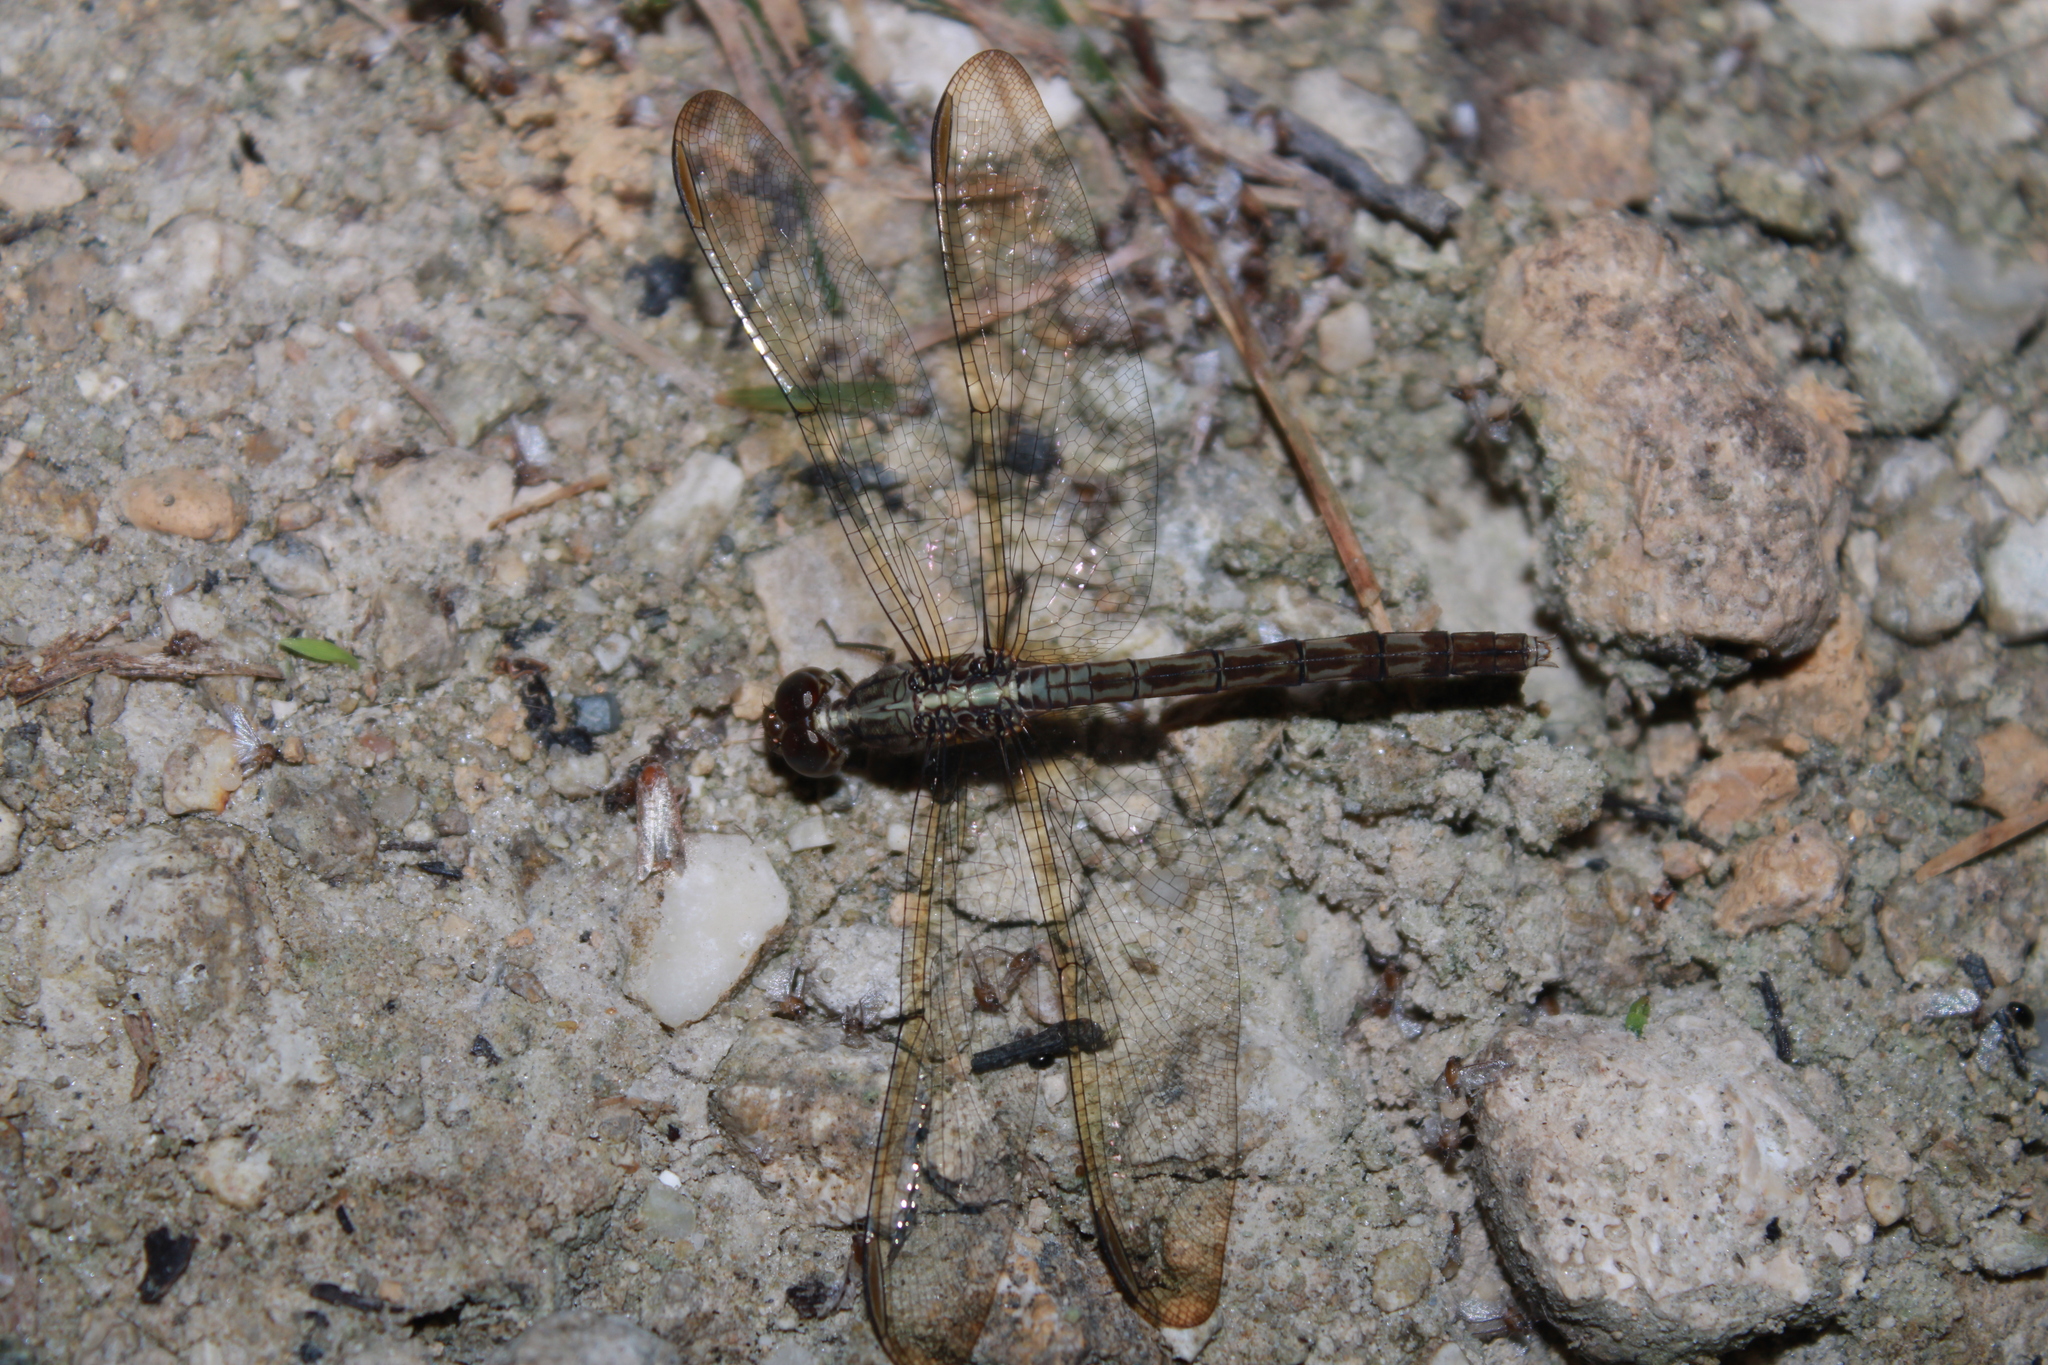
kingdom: Animalia
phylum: Arthropoda
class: Insecta
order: Odonata
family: Libellulidae
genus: Erythrodiplax
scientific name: Erythrodiplax umbrata
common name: Band-winged dragonlet
